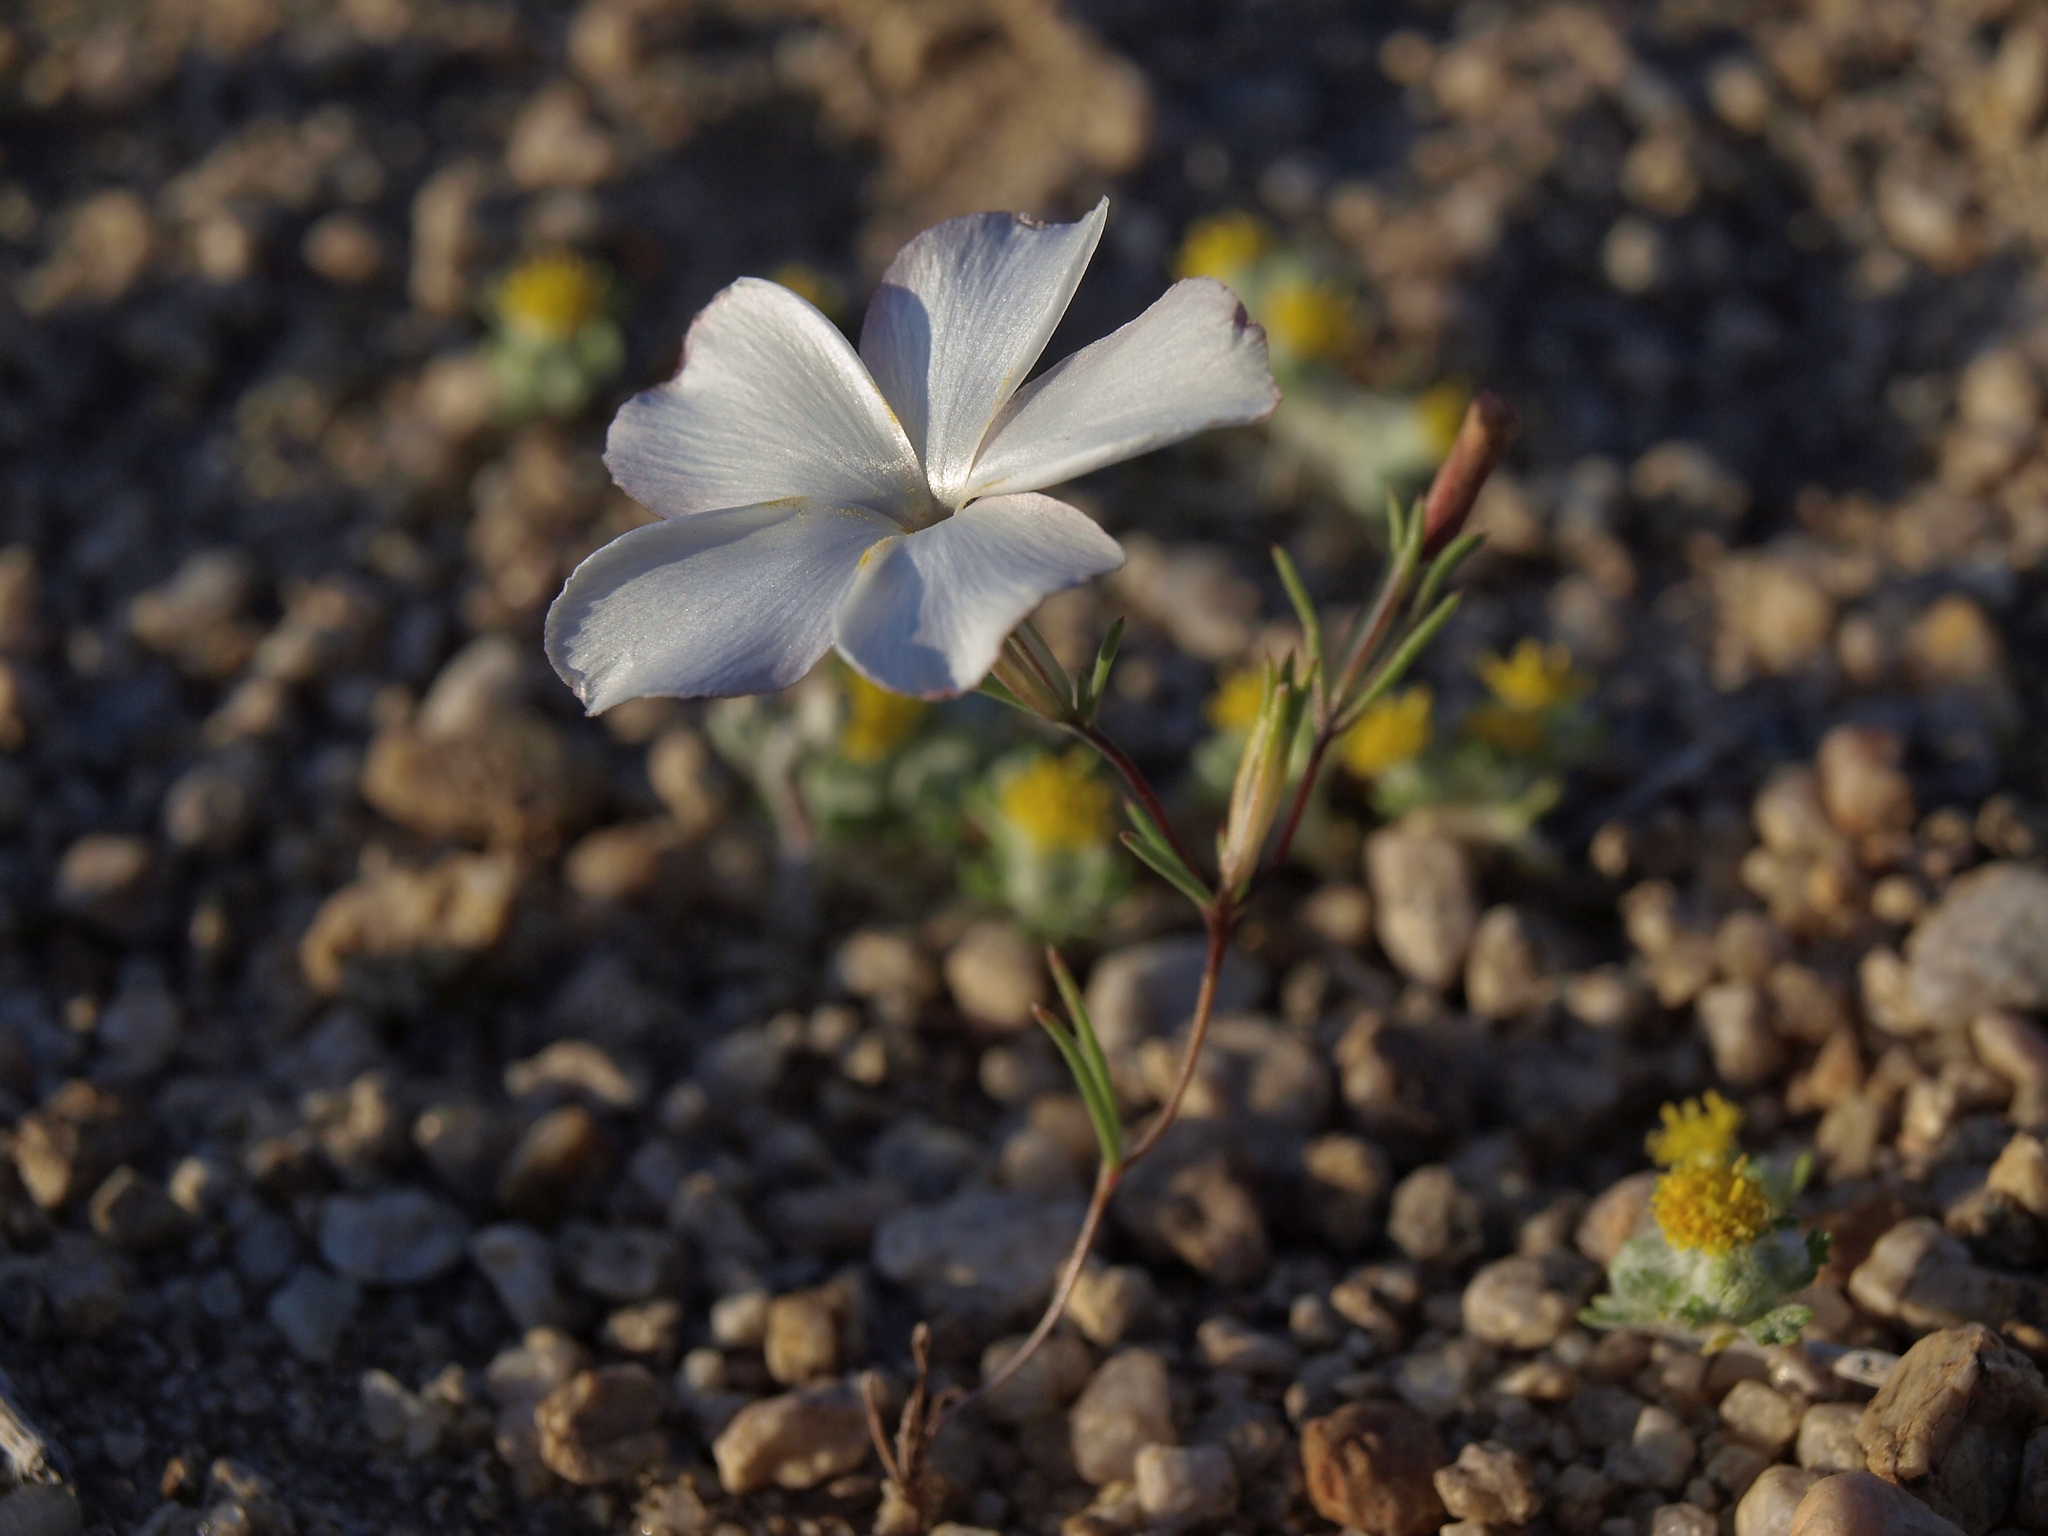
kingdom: Plantae
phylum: Tracheophyta
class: Magnoliopsida
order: Ericales
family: Polemoniaceae
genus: Linanthus
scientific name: Linanthus dichotomus
